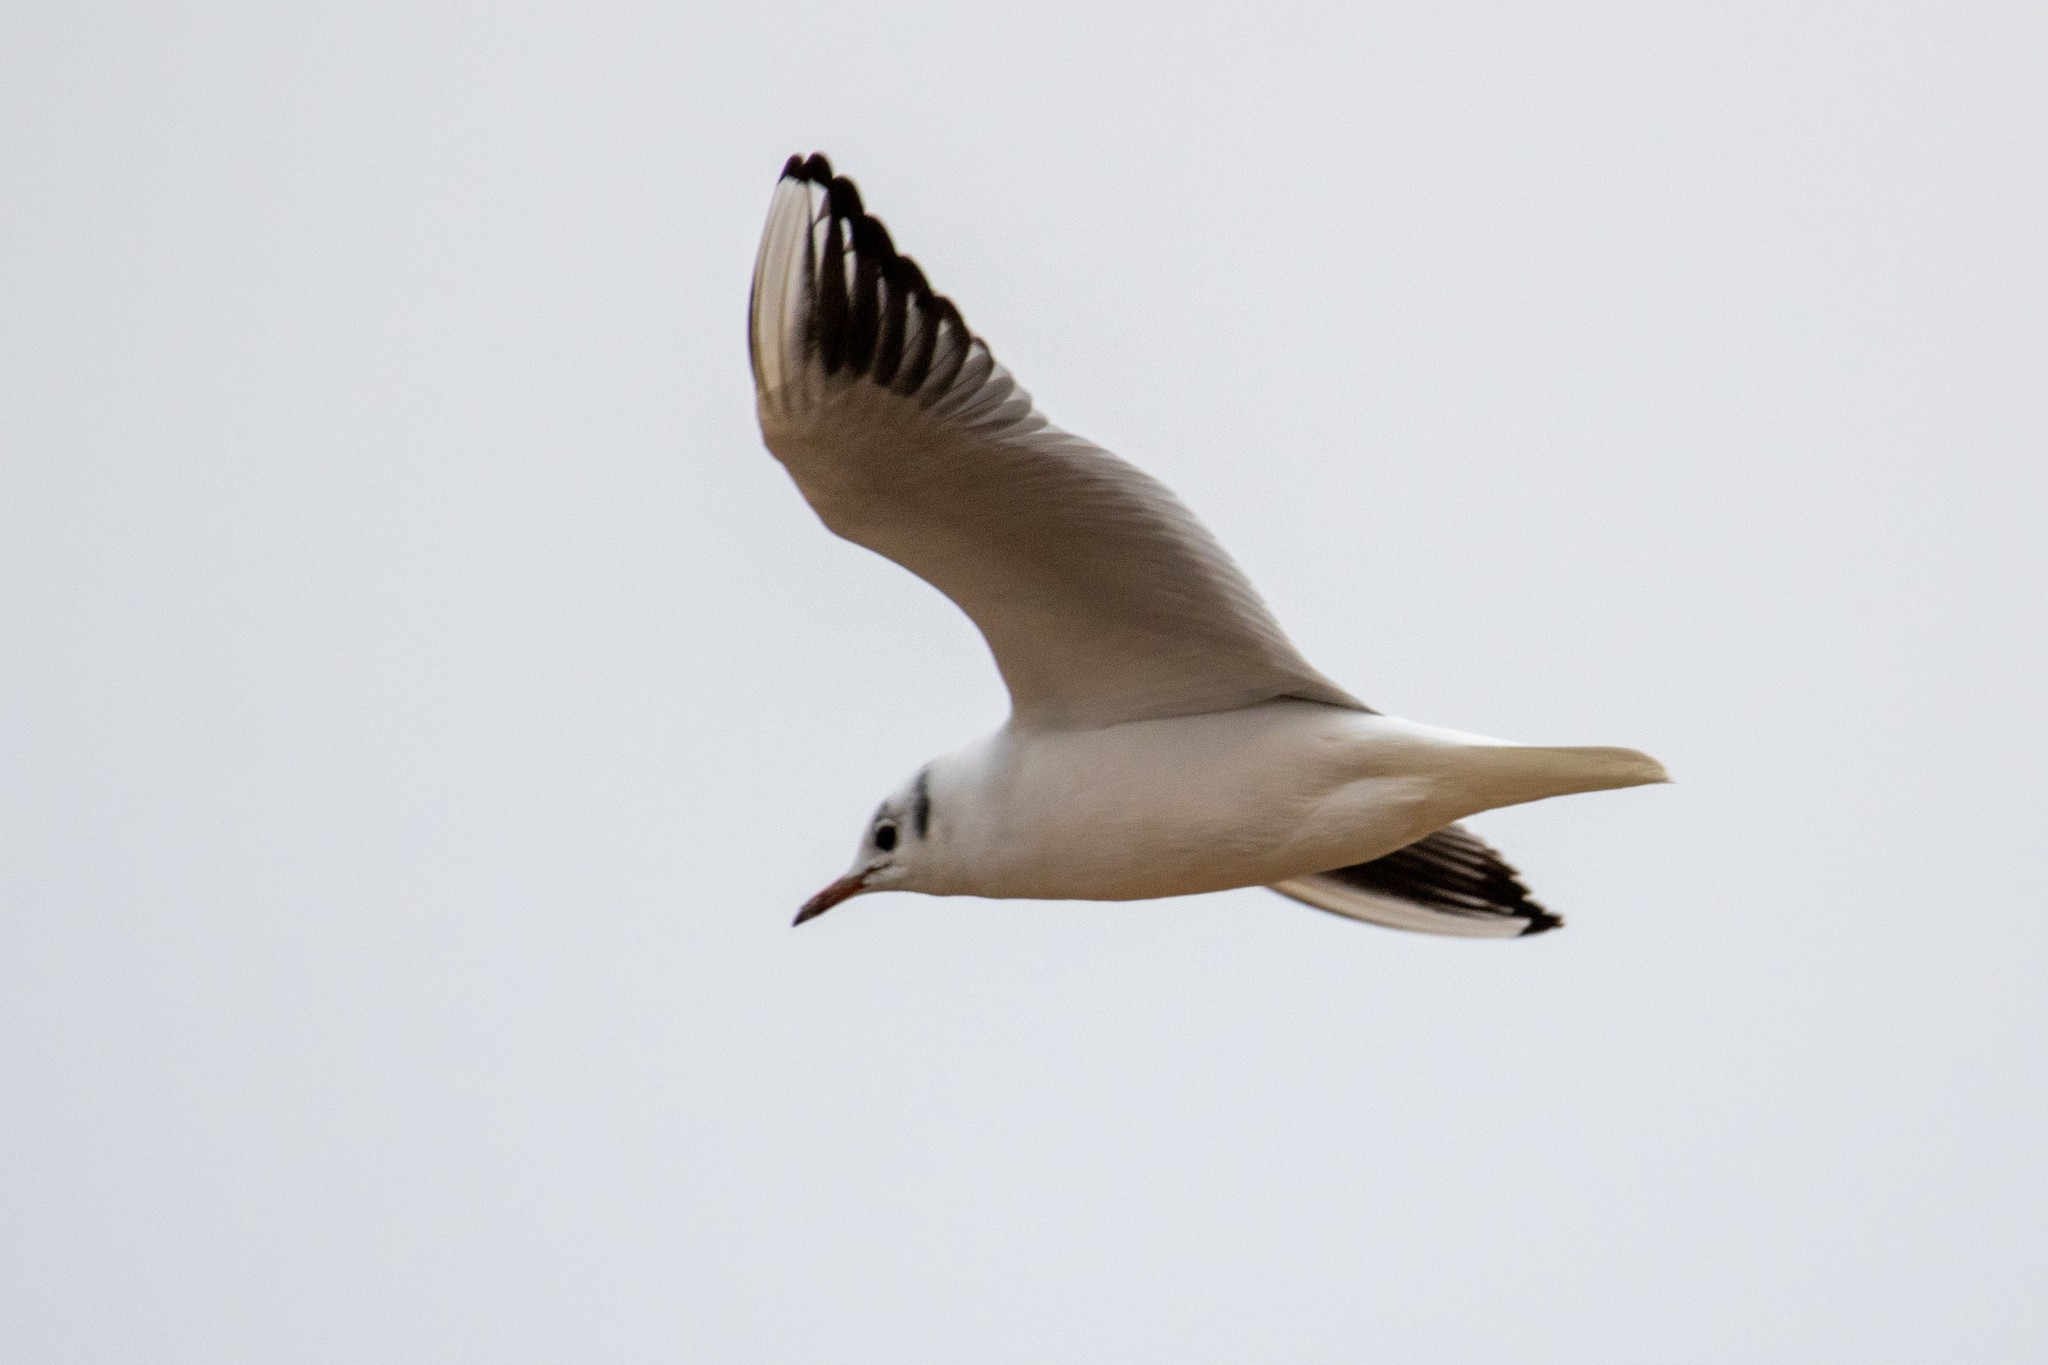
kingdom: Animalia
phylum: Chordata
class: Aves
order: Charadriiformes
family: Laridae
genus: Chroicocephalus
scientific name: Chroicocephalus ridibundus
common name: Black-headed gull
